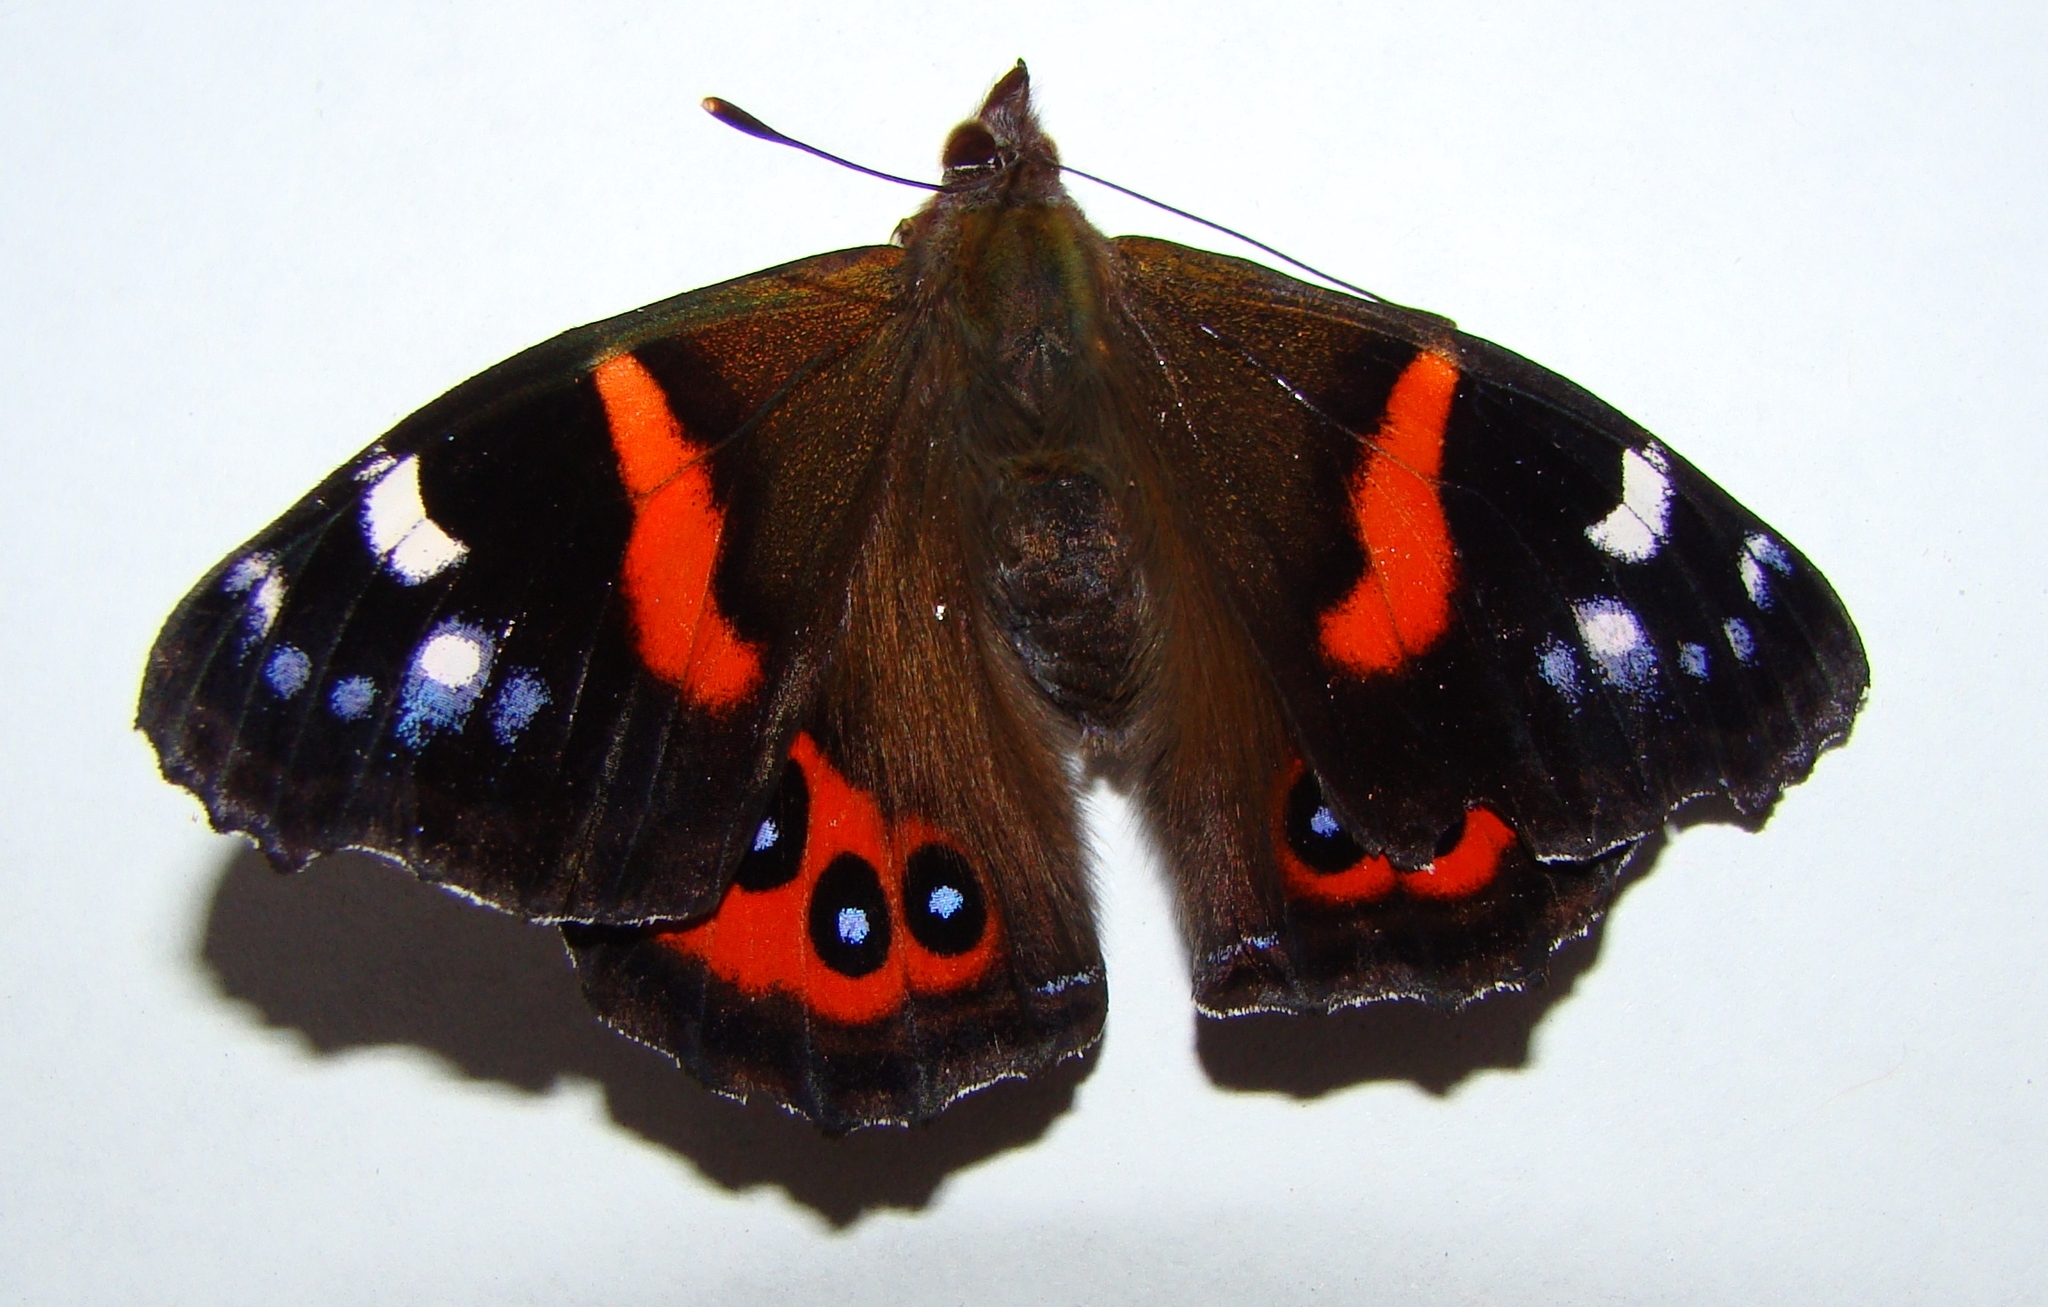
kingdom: Animalia
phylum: Arthropoda
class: Insecta
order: Lepidoptera
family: Nymphalidae
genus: Vanessa
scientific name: Vanessa gonerilla
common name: New zealand red admiral
